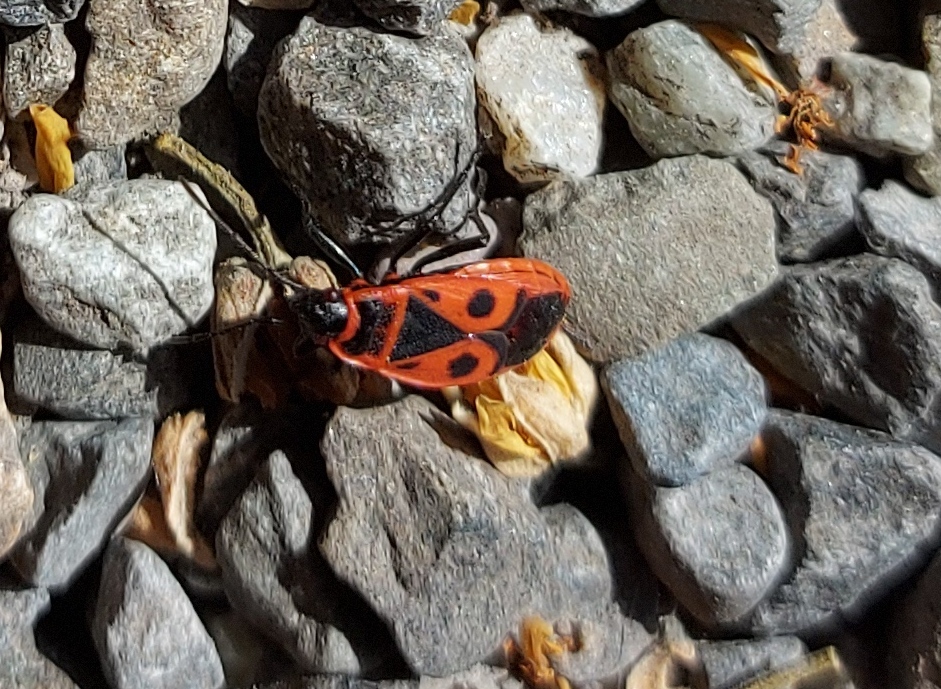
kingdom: Animalia
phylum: Arthropoda
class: Insecta
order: Hemiptera
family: Pyrrhocoridae
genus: Pyrrhocoris
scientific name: Pyrrhocoris apterus
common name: Firebug
